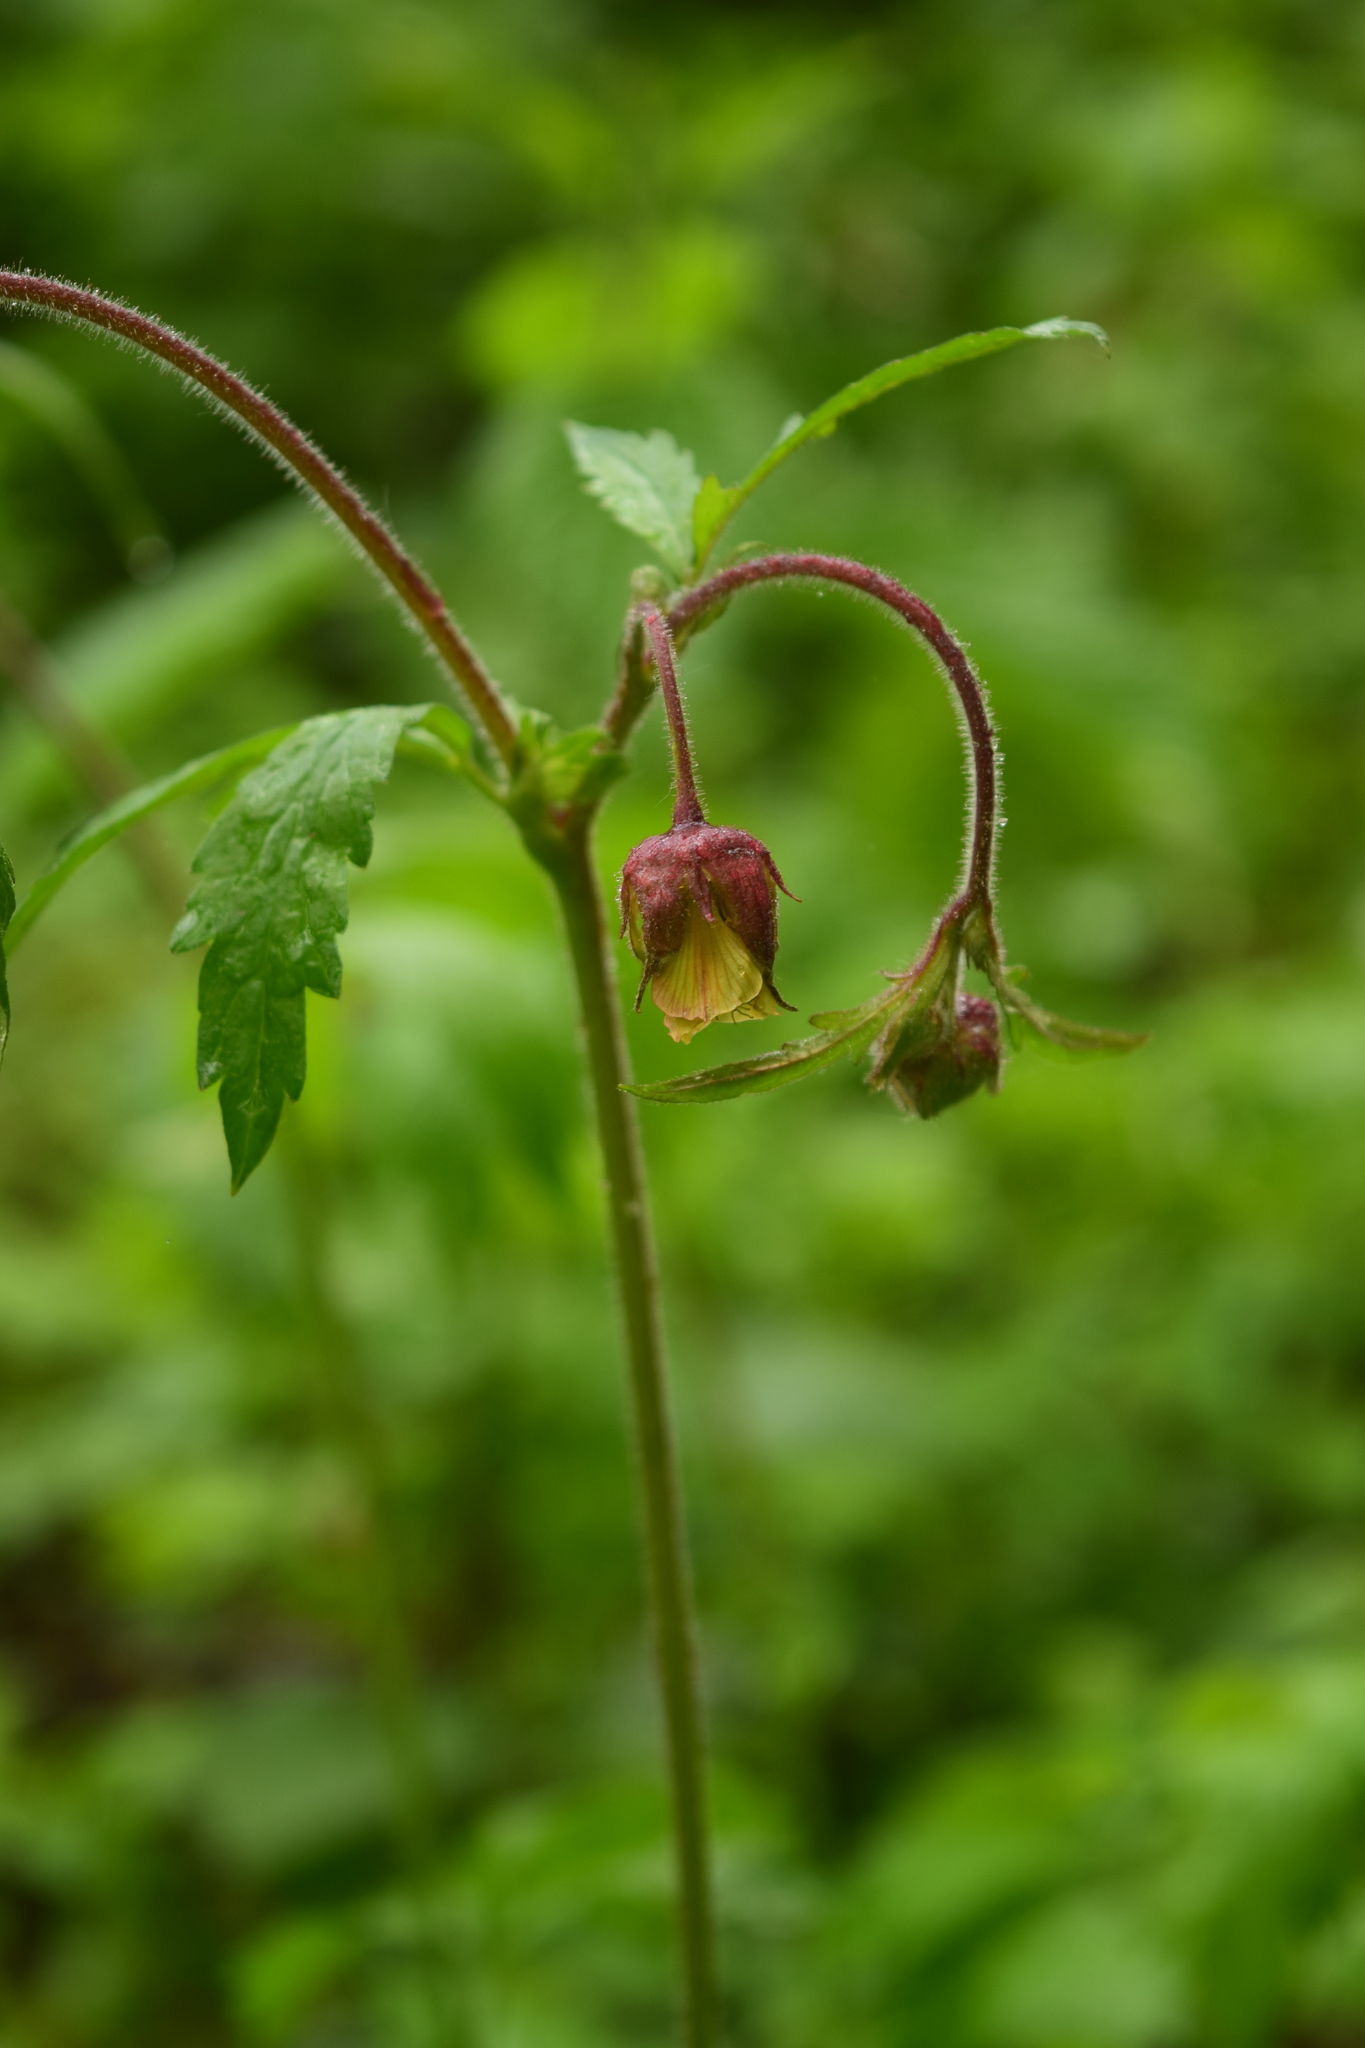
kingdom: Plantae
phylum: Tracheophyta
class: Magnoliopsida
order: Rosales
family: Rosaceae
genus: Geum
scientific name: Geum rivale
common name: Water avens
